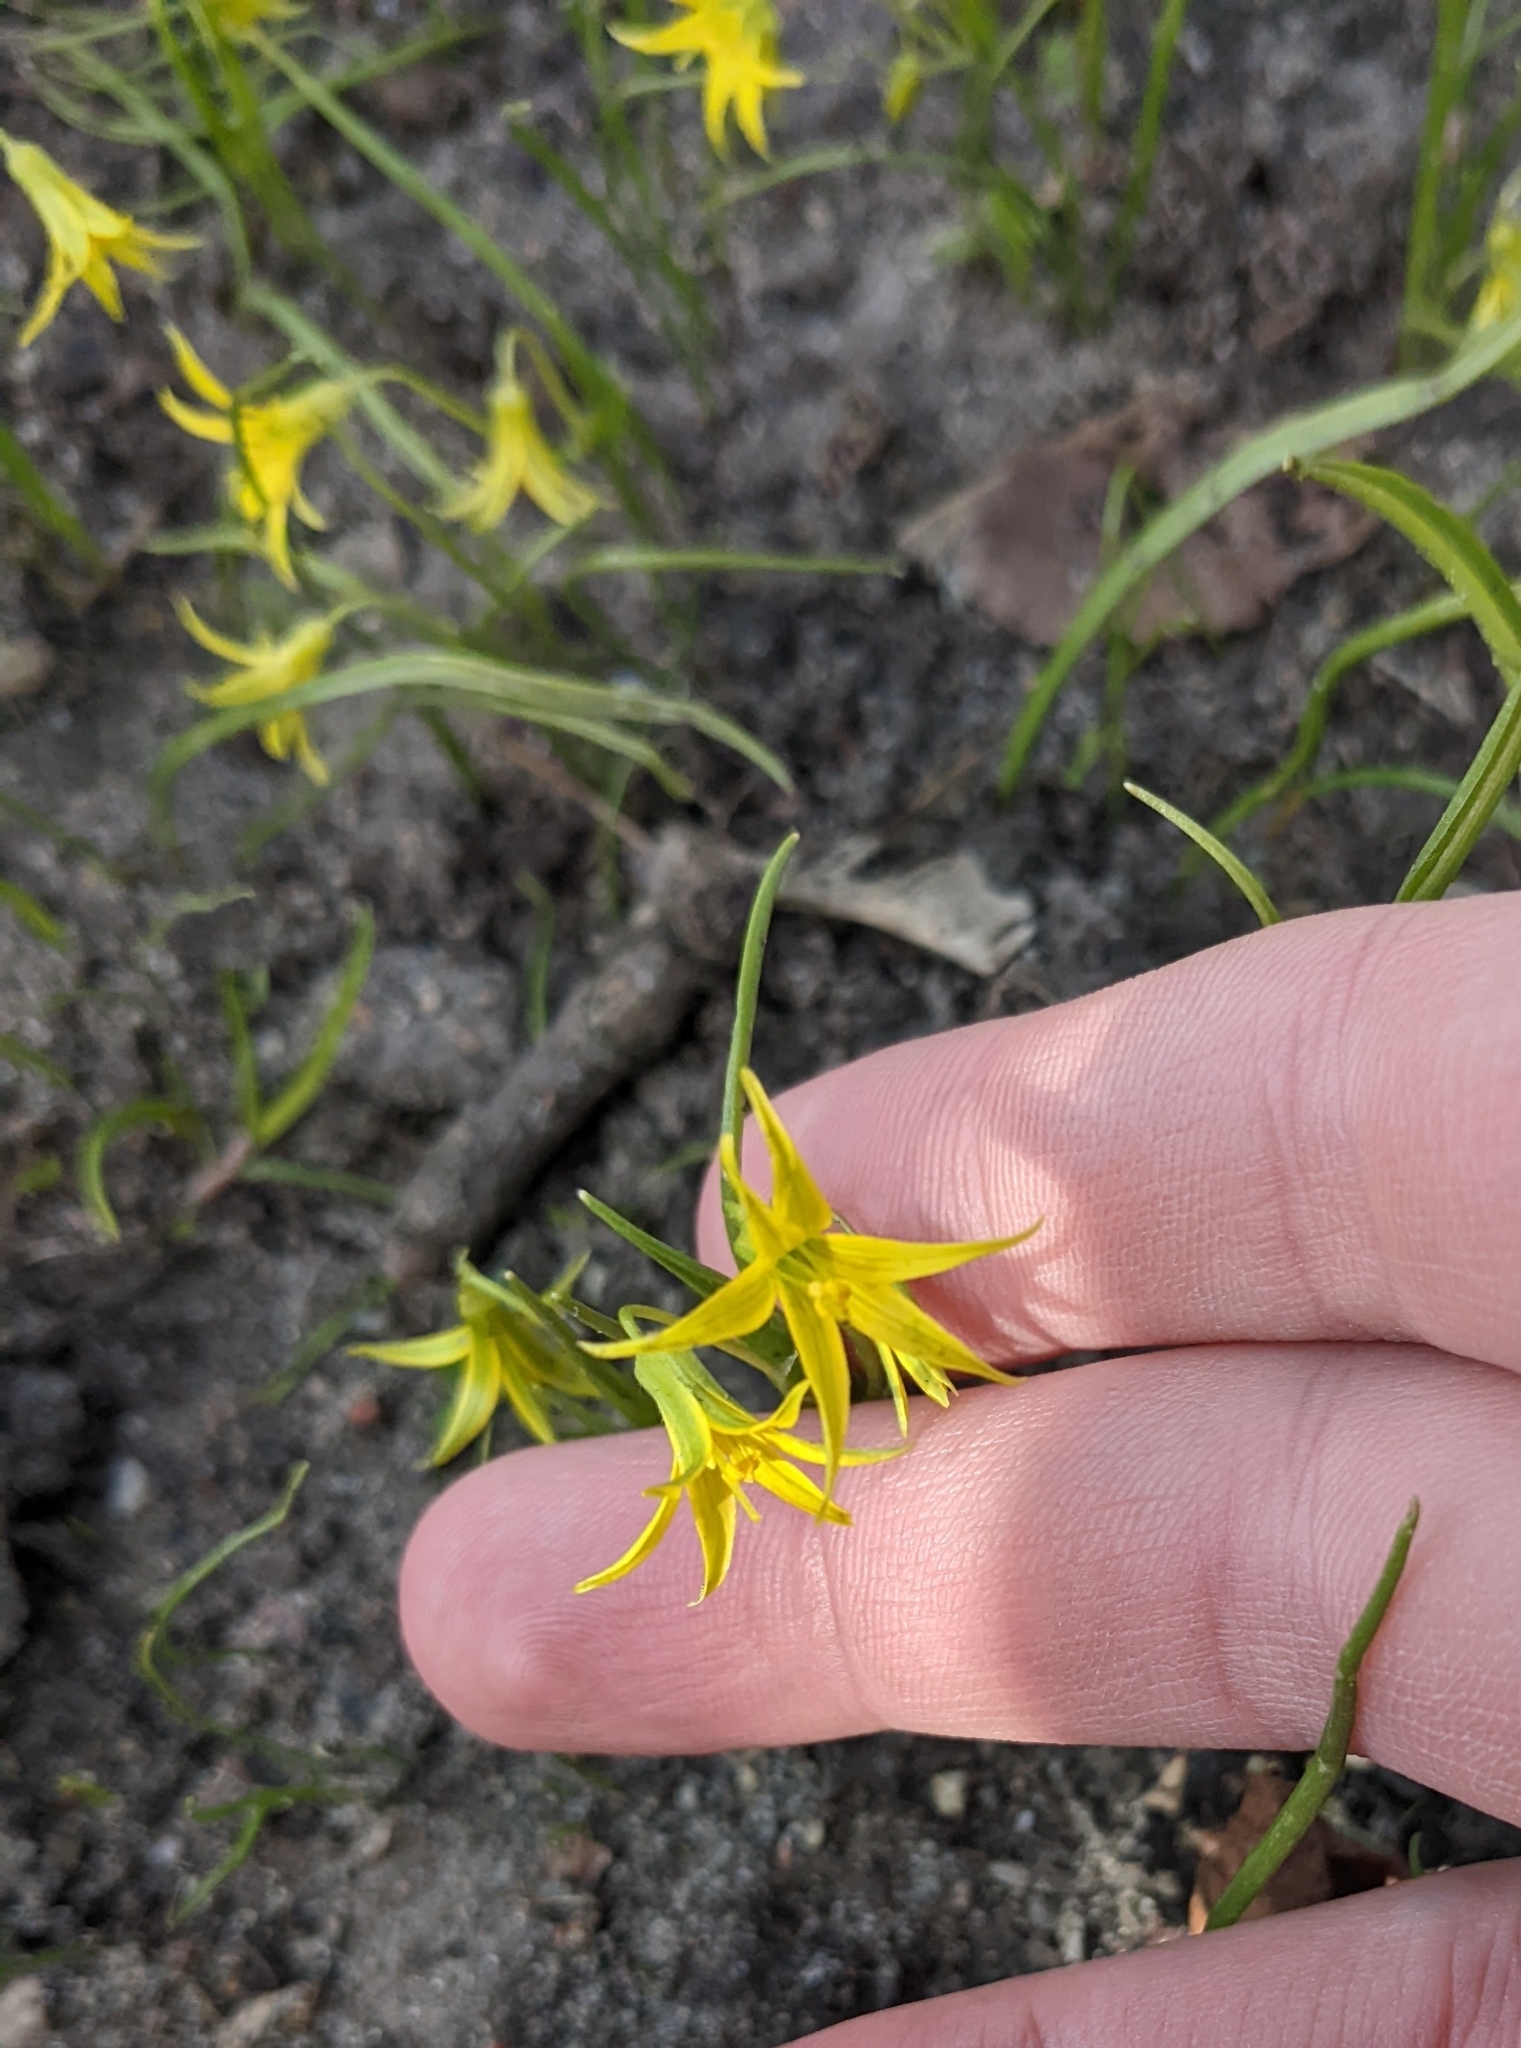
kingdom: Plantae
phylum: Tracheophyta
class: Liliopsida
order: Liliales
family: Liliaceae
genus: Gagea
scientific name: Gagea minima
